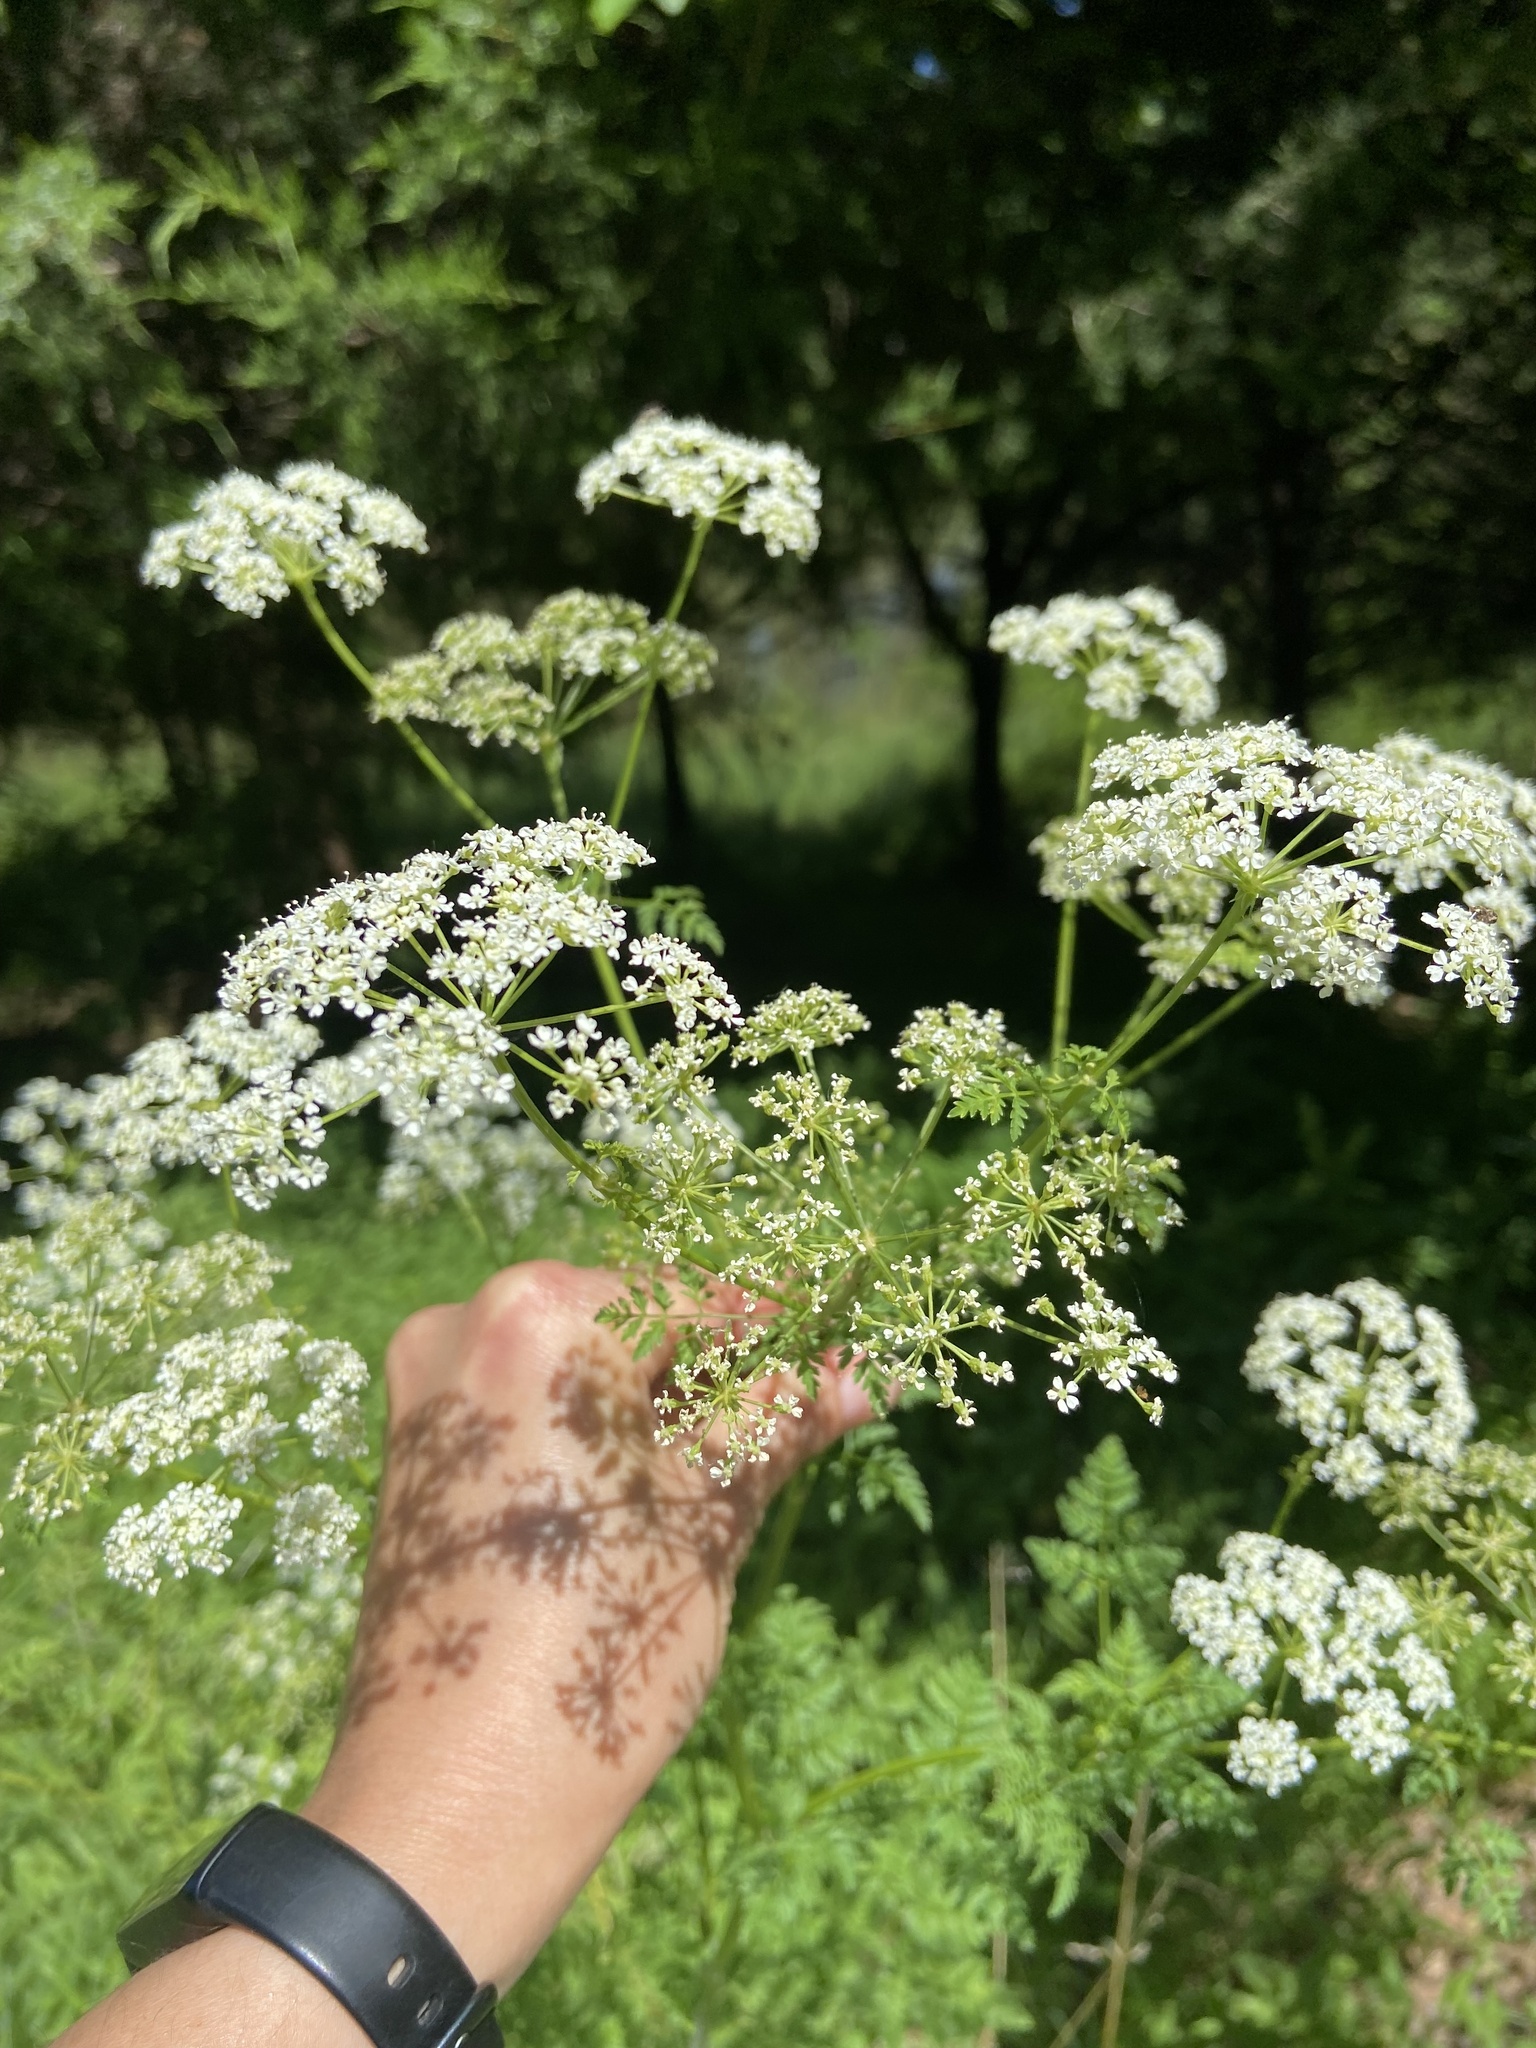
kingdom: Plantae
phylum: Tracheophyta
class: Magnoliopsida
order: Apiales
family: Apiaceae
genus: Conium
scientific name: Conium maculatum
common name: Hemlock
